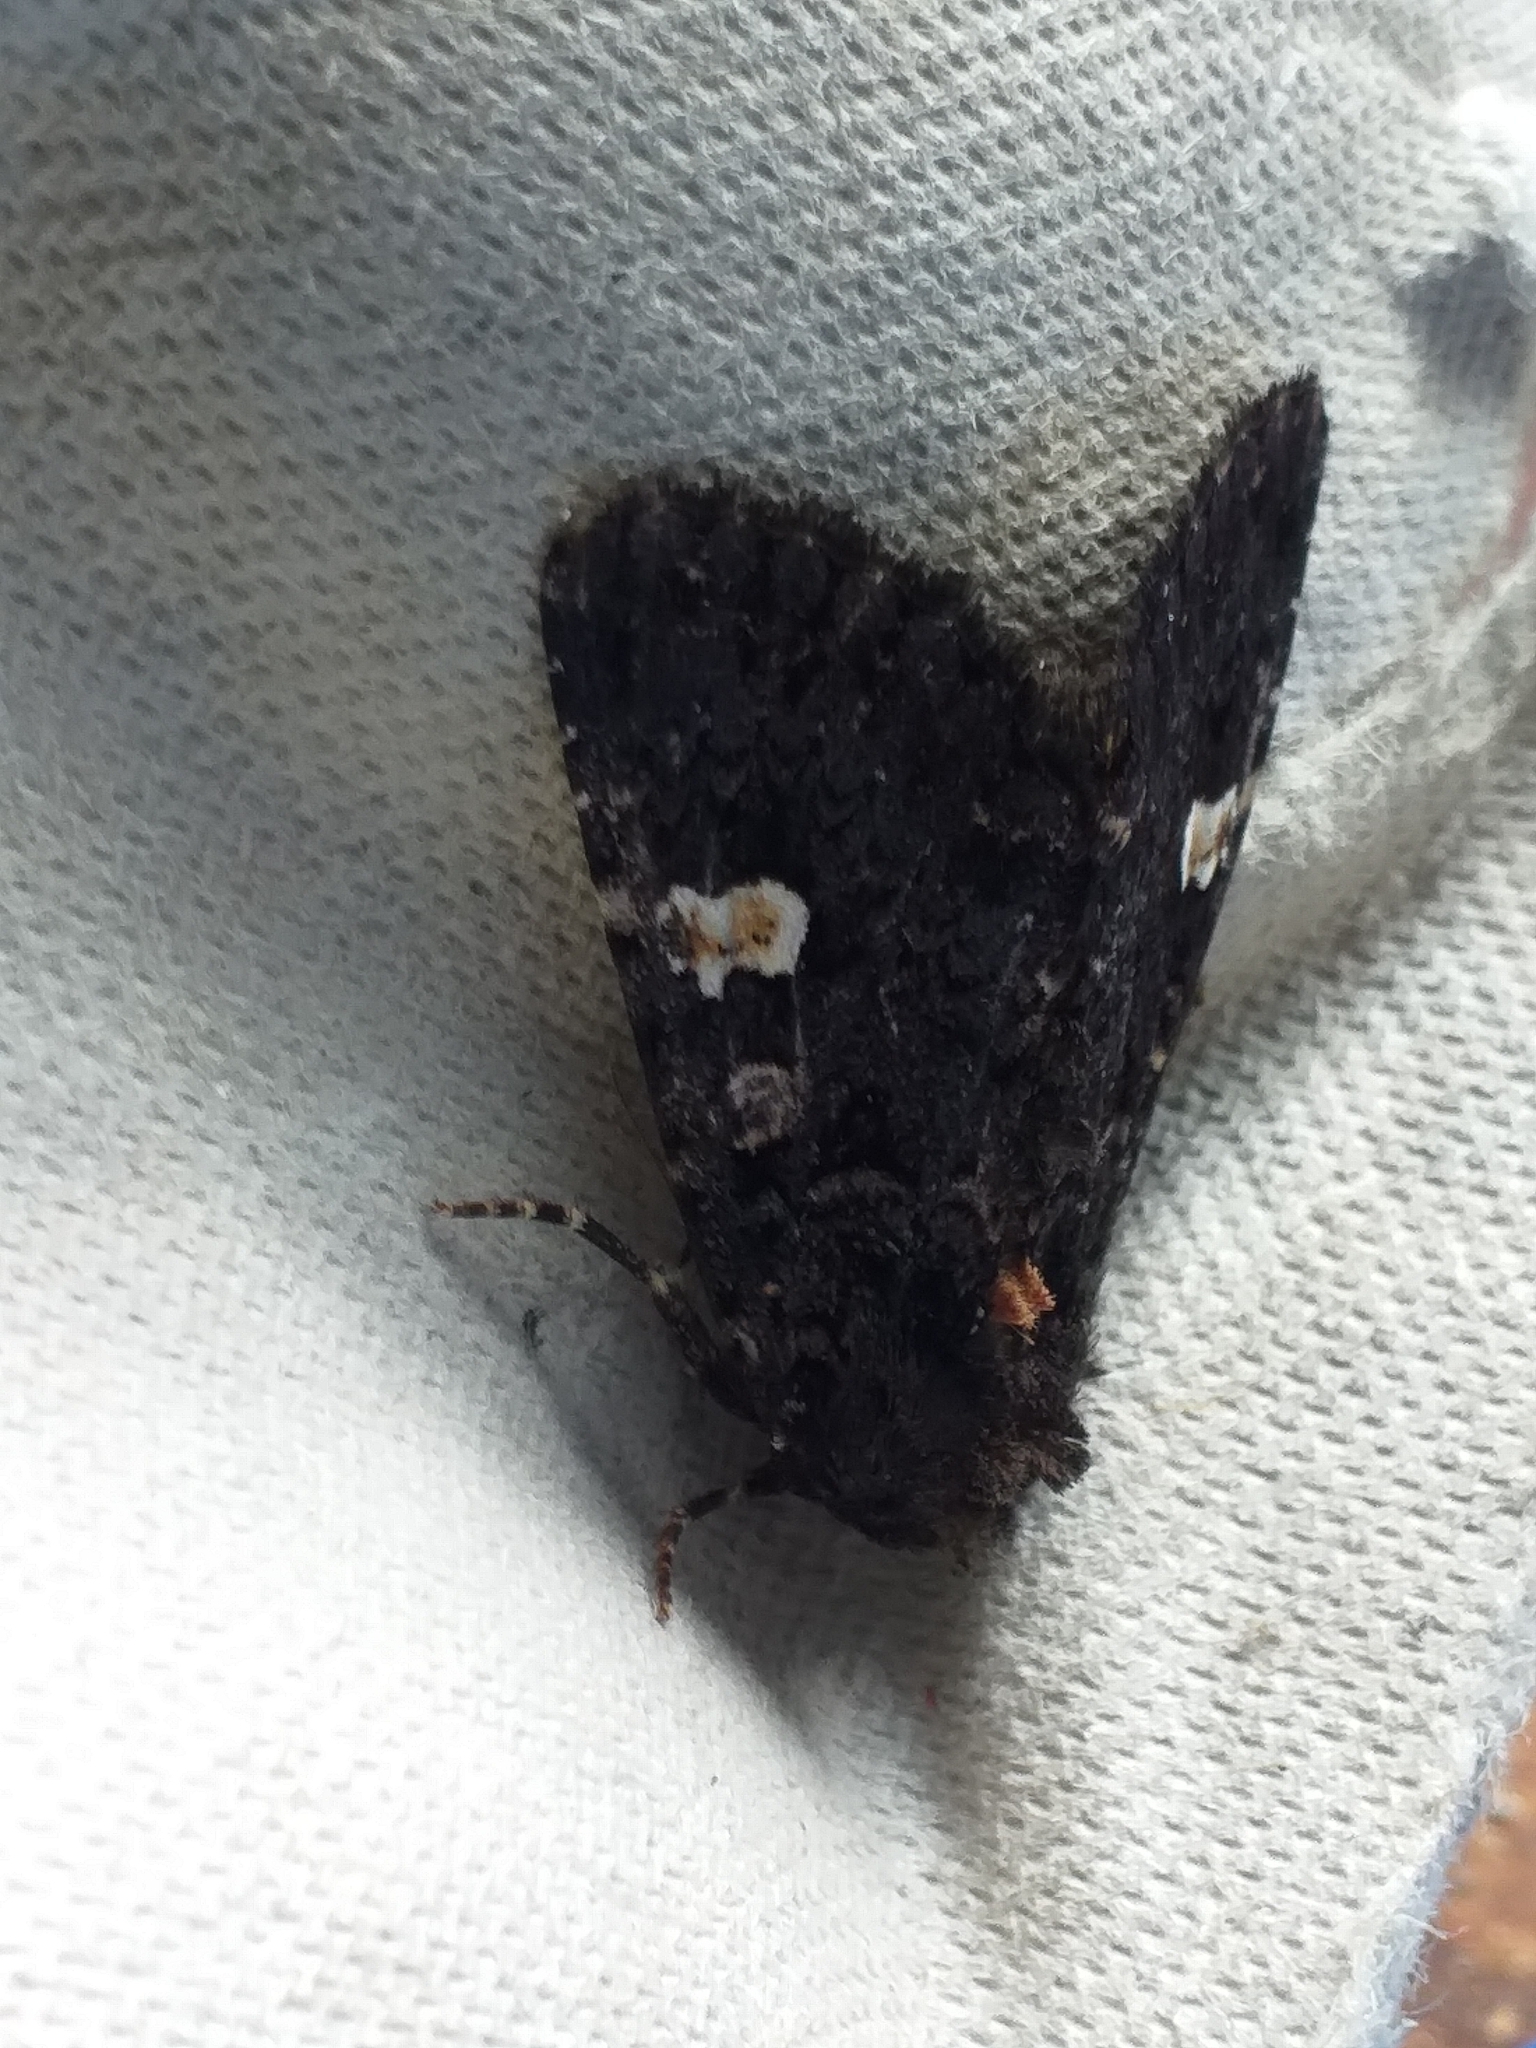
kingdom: Animalia
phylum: Arthropoda
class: Insecta
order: Lepidoptera
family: Noctuidae
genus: Melanchra
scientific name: Melanchra persicariae
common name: Dot moth
